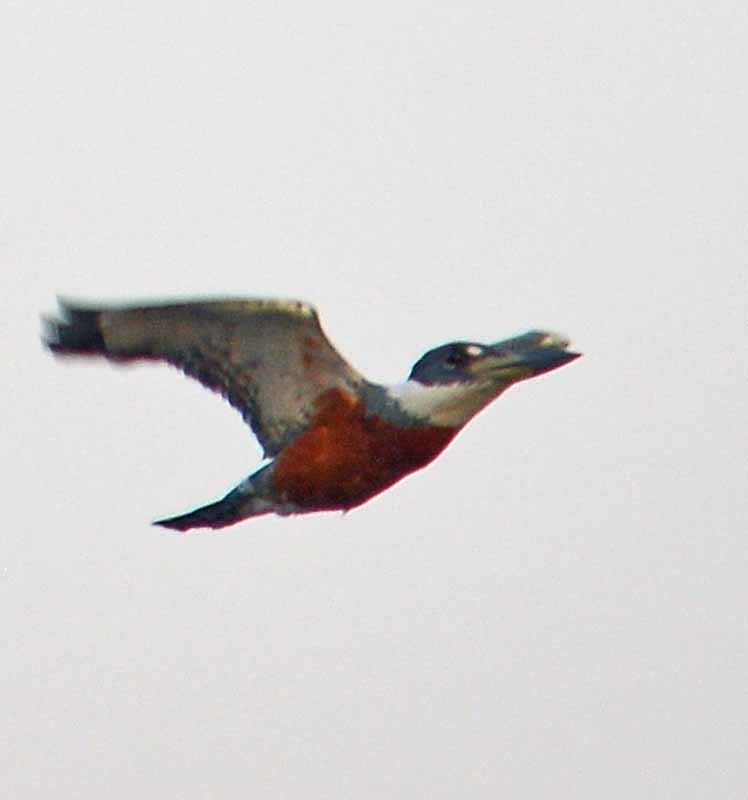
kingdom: Animalia
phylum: Chordata
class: Aves
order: Coraciiformes
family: Alcedinidae
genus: Megaceryle
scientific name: Megaceryle torquata
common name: Ringed kingfisher
